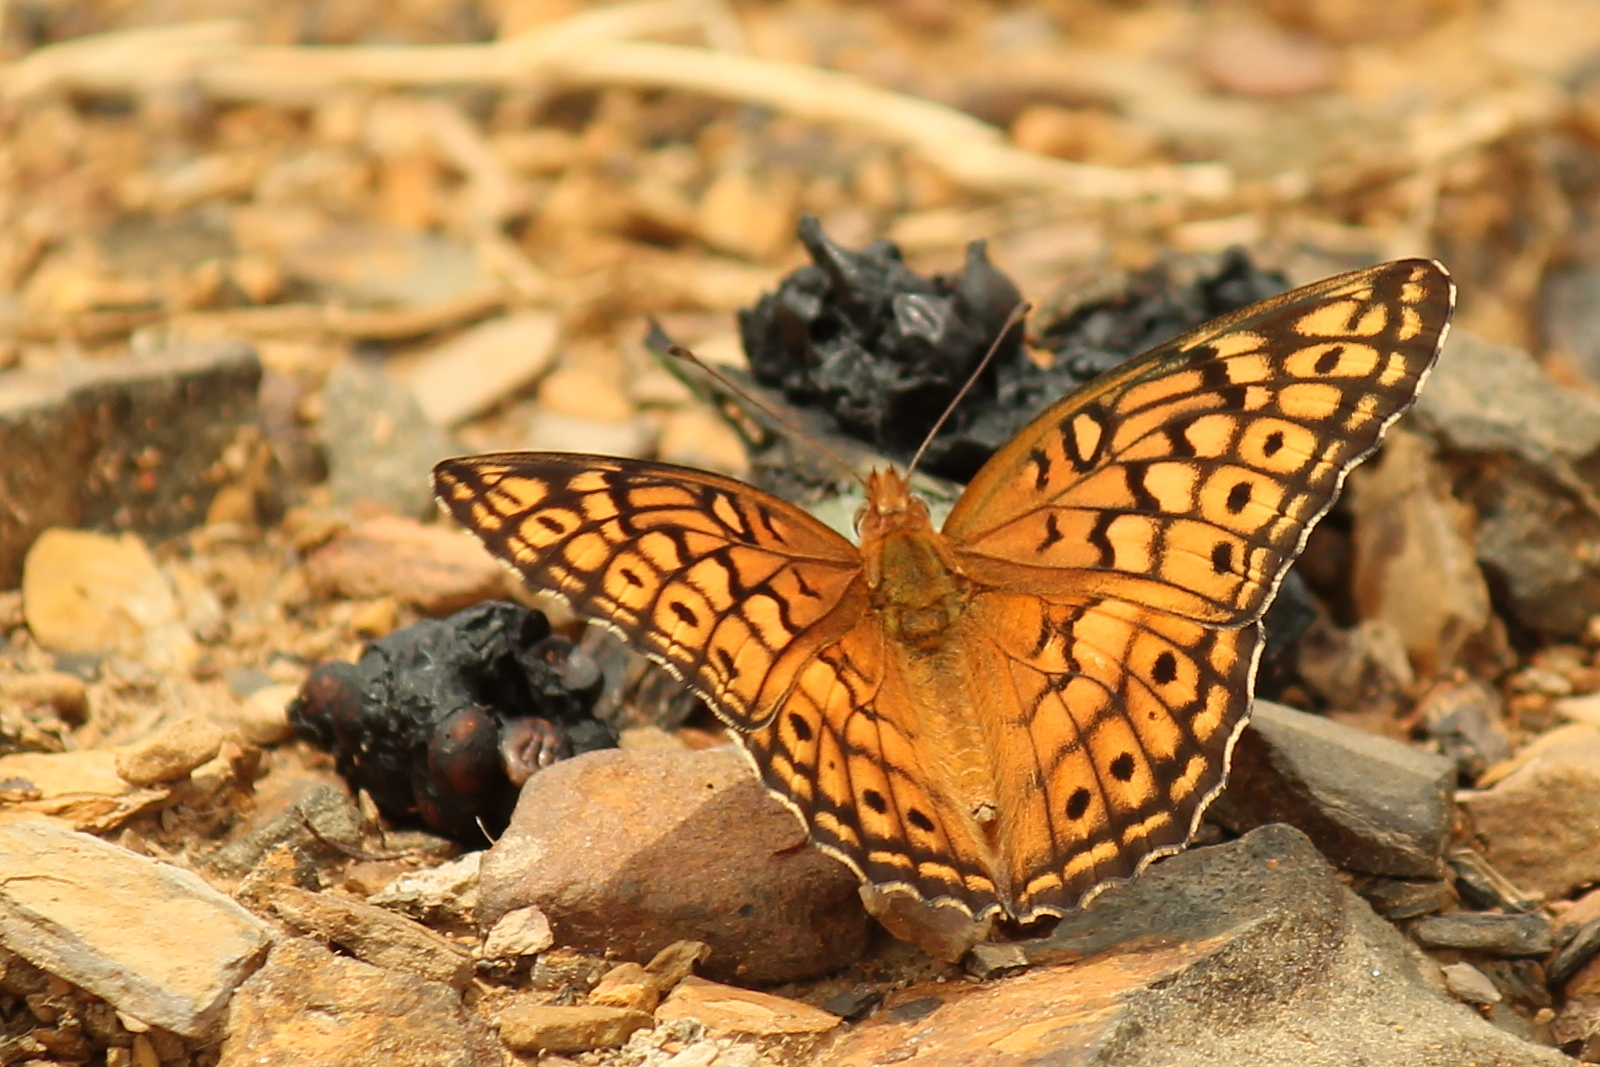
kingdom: Animalia
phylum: Arthropoda
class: Insecta
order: Lepidoptera
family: Nymphalidae
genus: Euptoieta
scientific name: Euptoieta claudia
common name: Variegated fritillary
